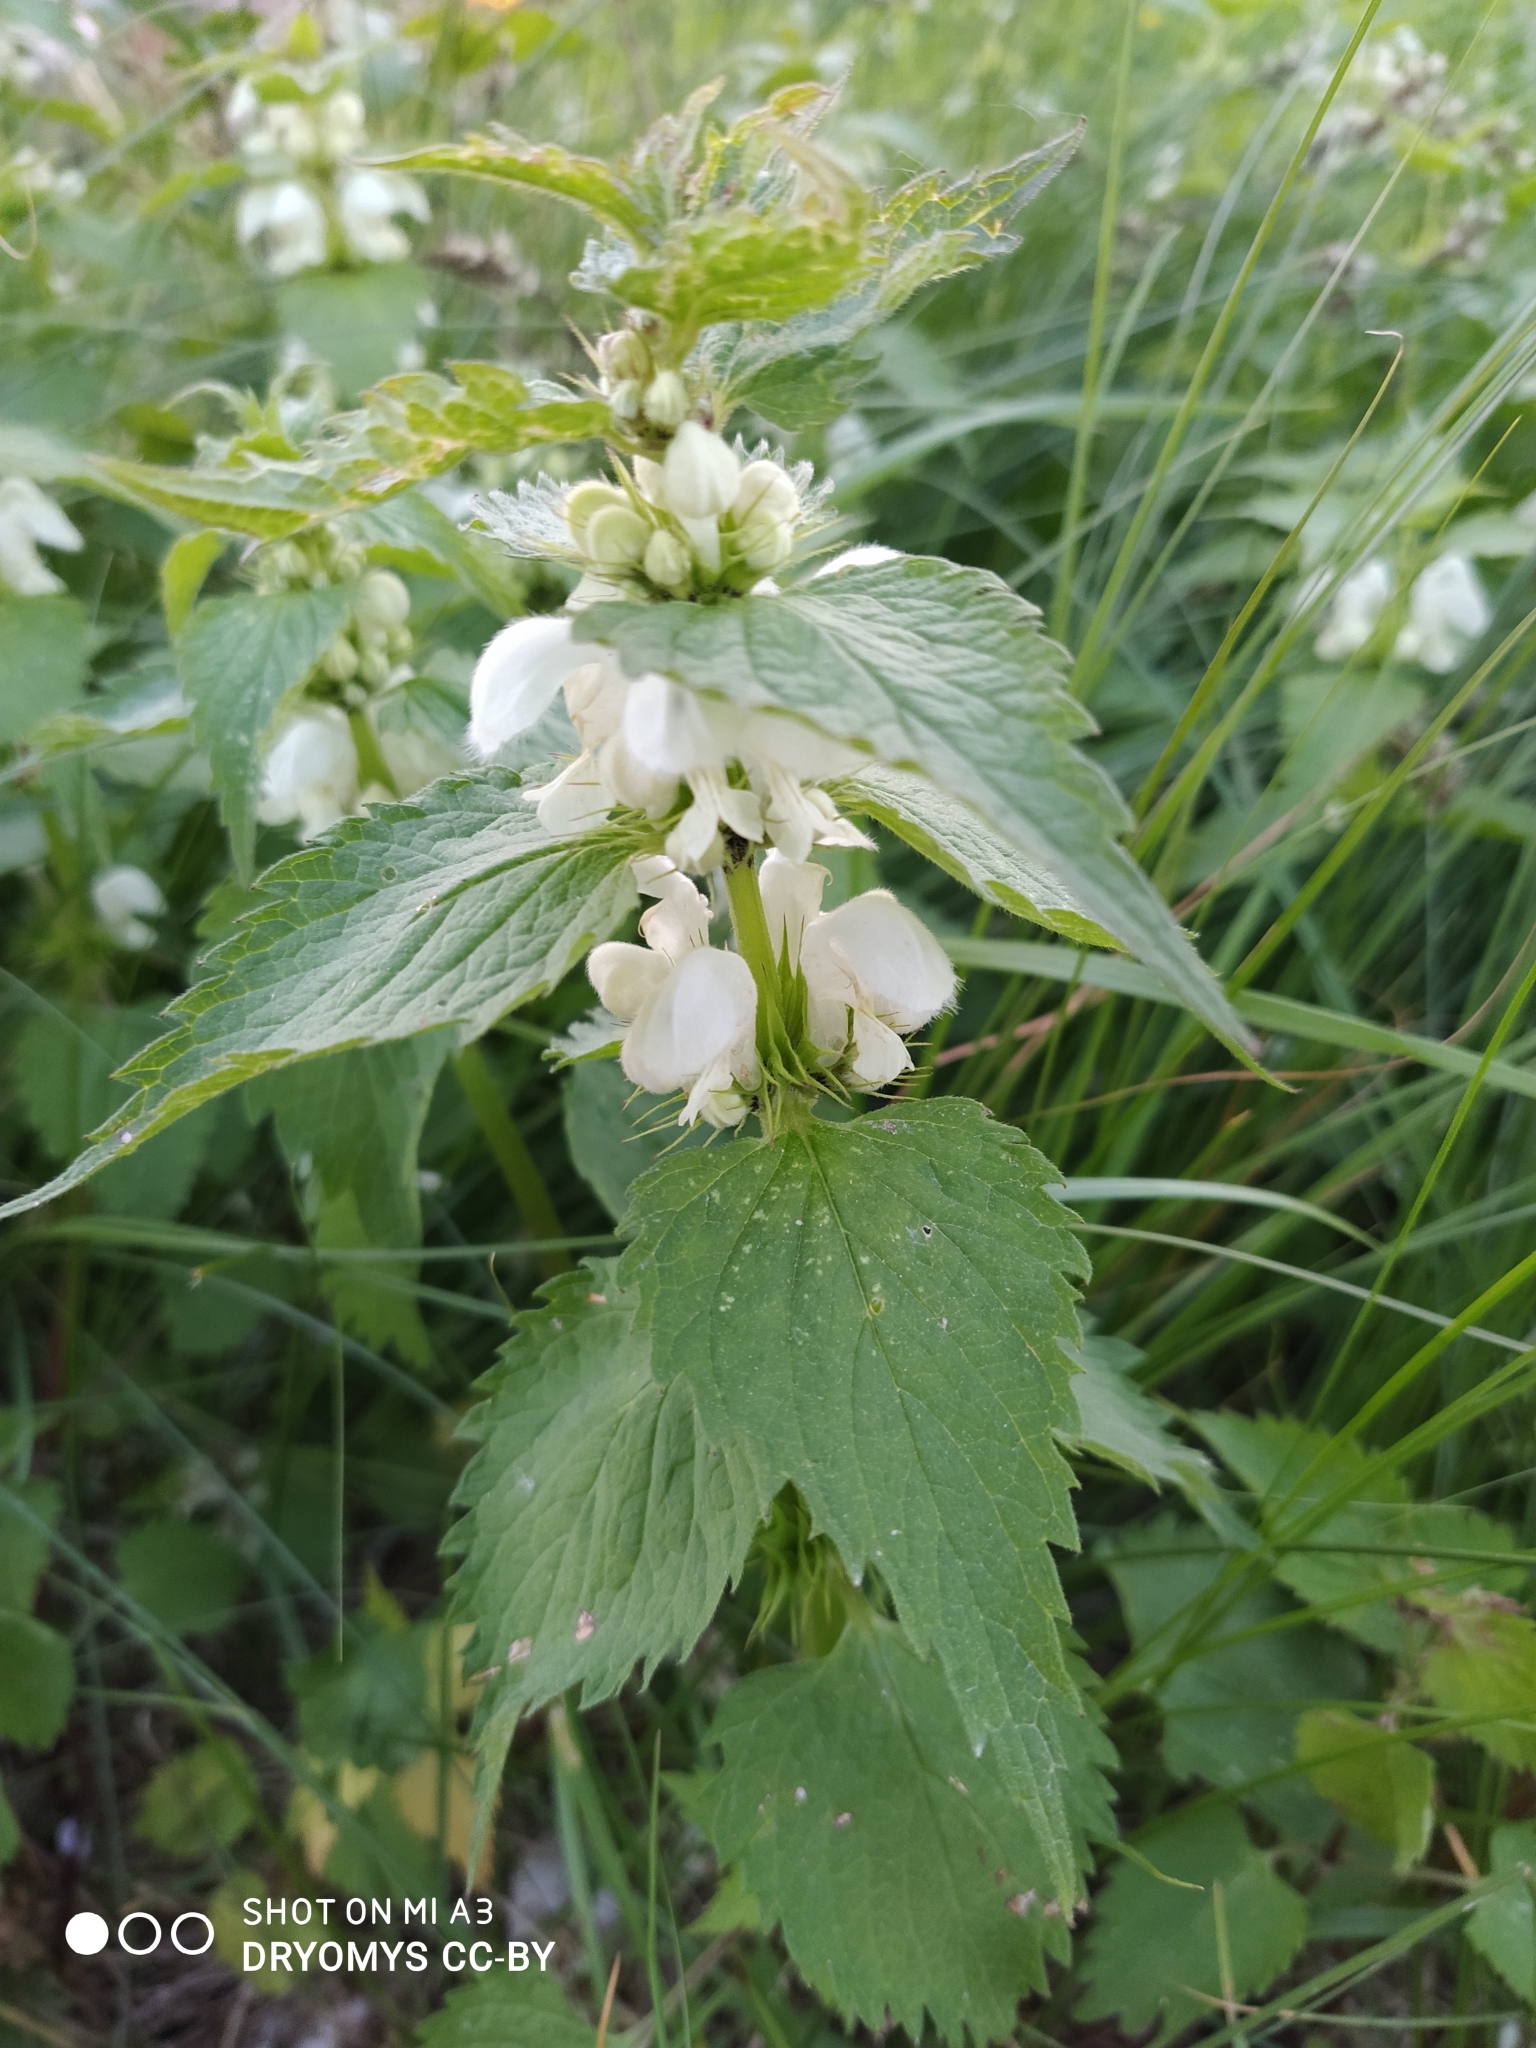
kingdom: Plantae
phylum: Tracheophyta
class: Magnoliopsida
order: Lamiales
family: Lamiaceae
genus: Lamium
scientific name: Lamium album
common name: White dead-nettle
